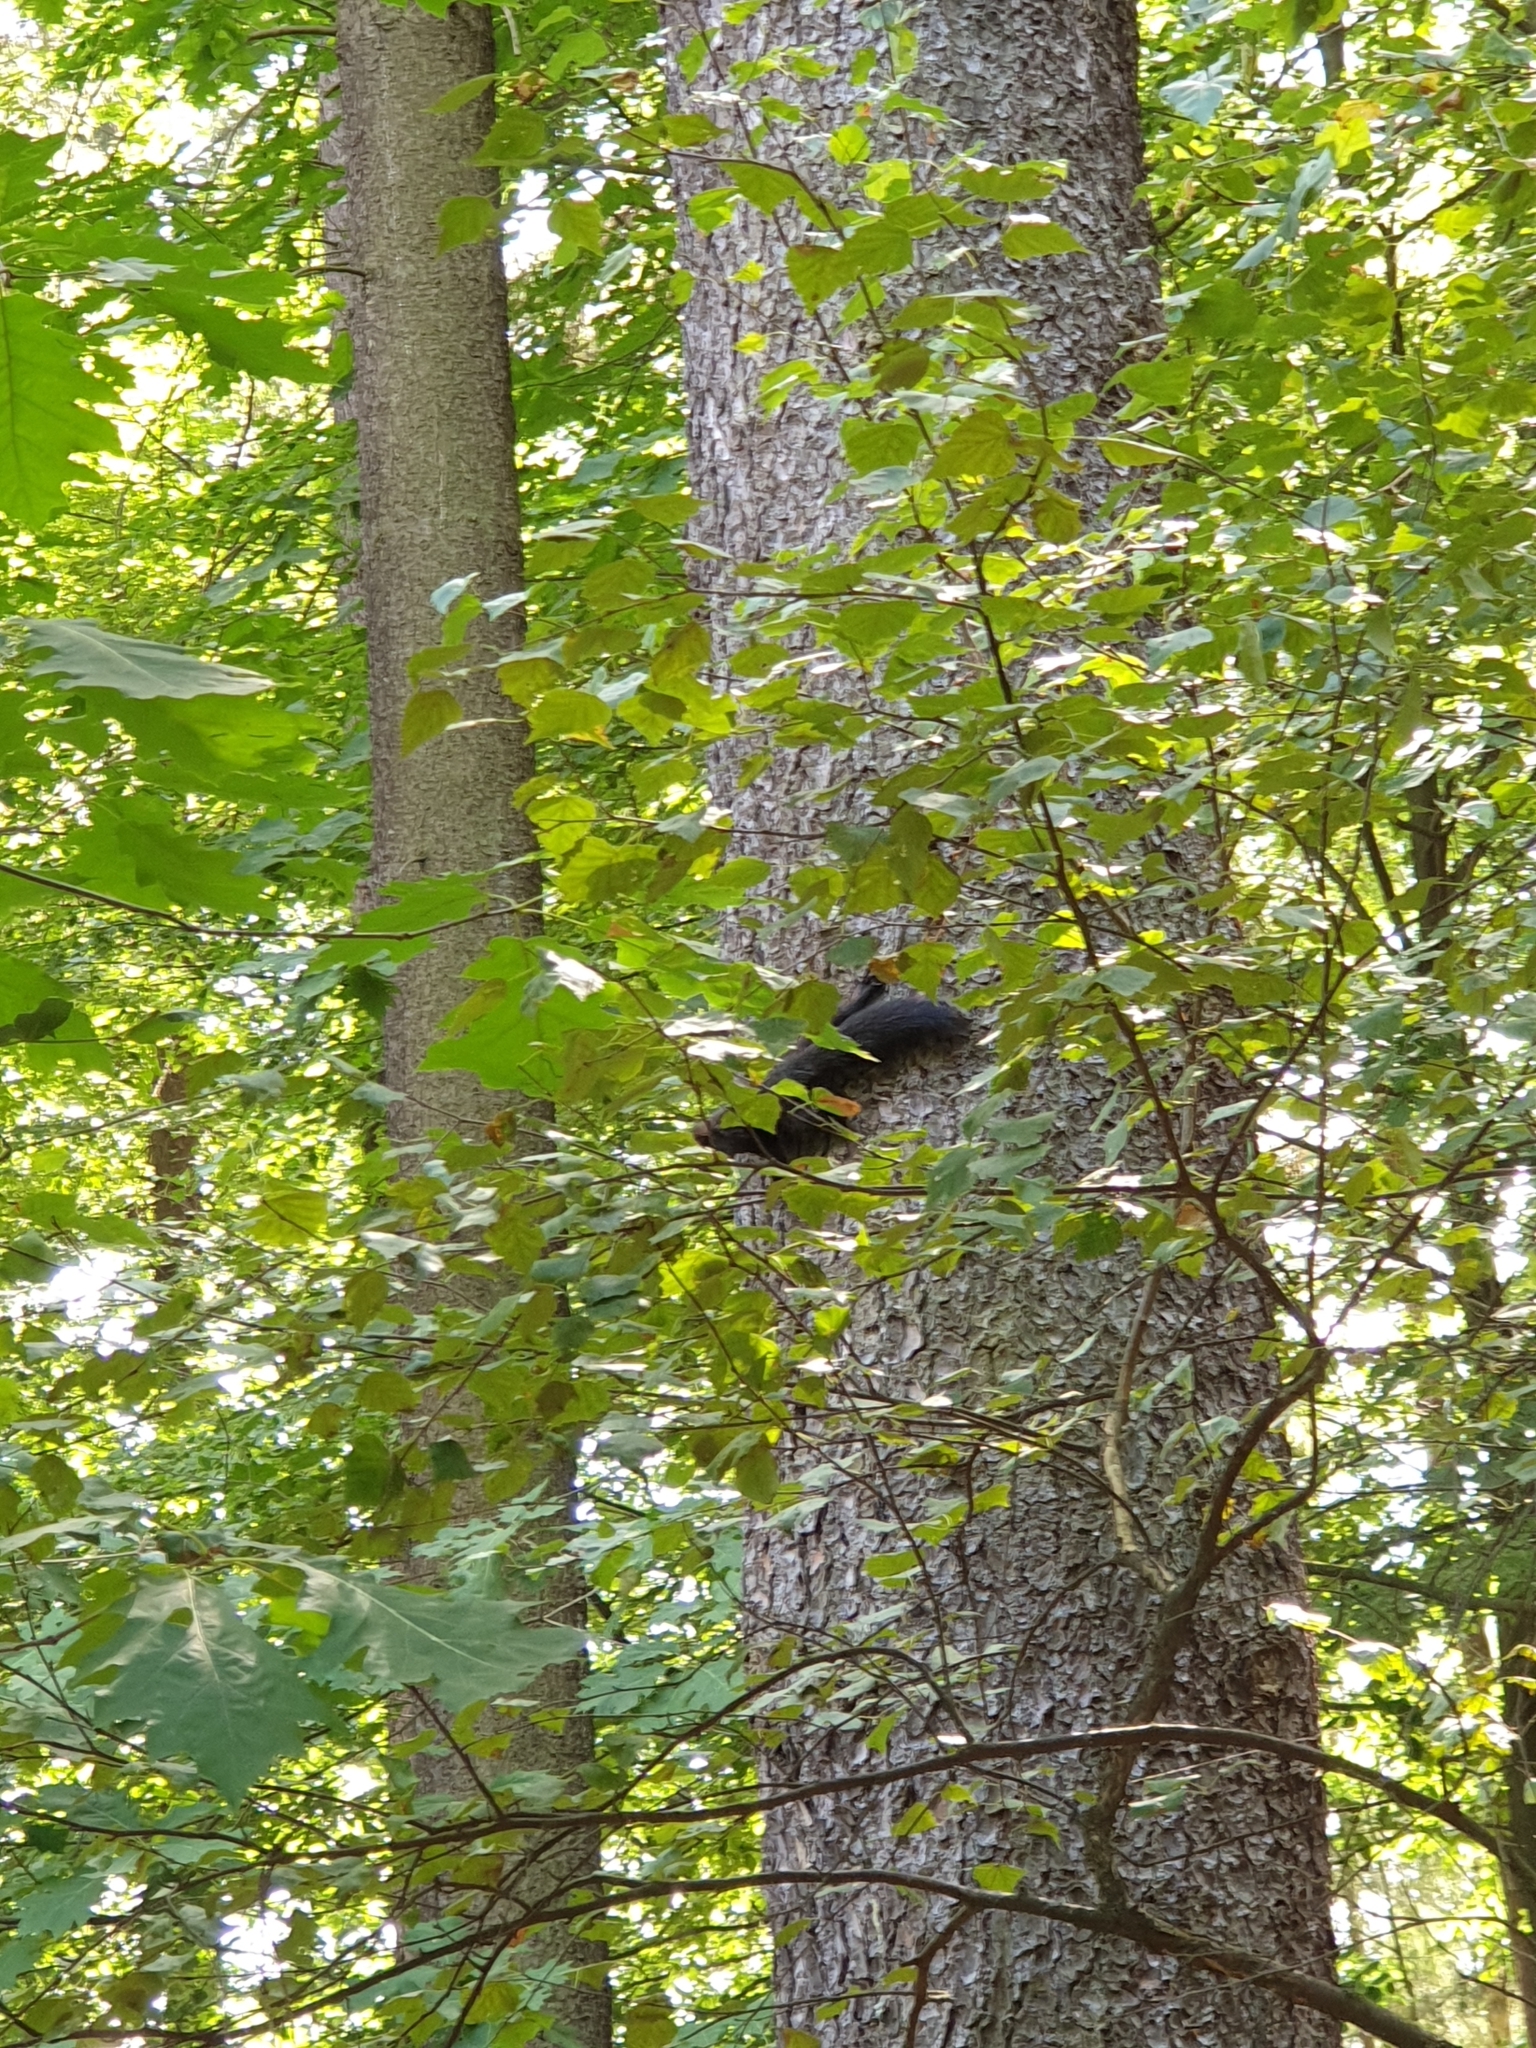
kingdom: Animalia
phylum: Chordata
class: Mammalia
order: Rodentia
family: Sciuridae
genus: Sciurus
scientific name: Sciurus vulgaris
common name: Eurasian red squirrel
